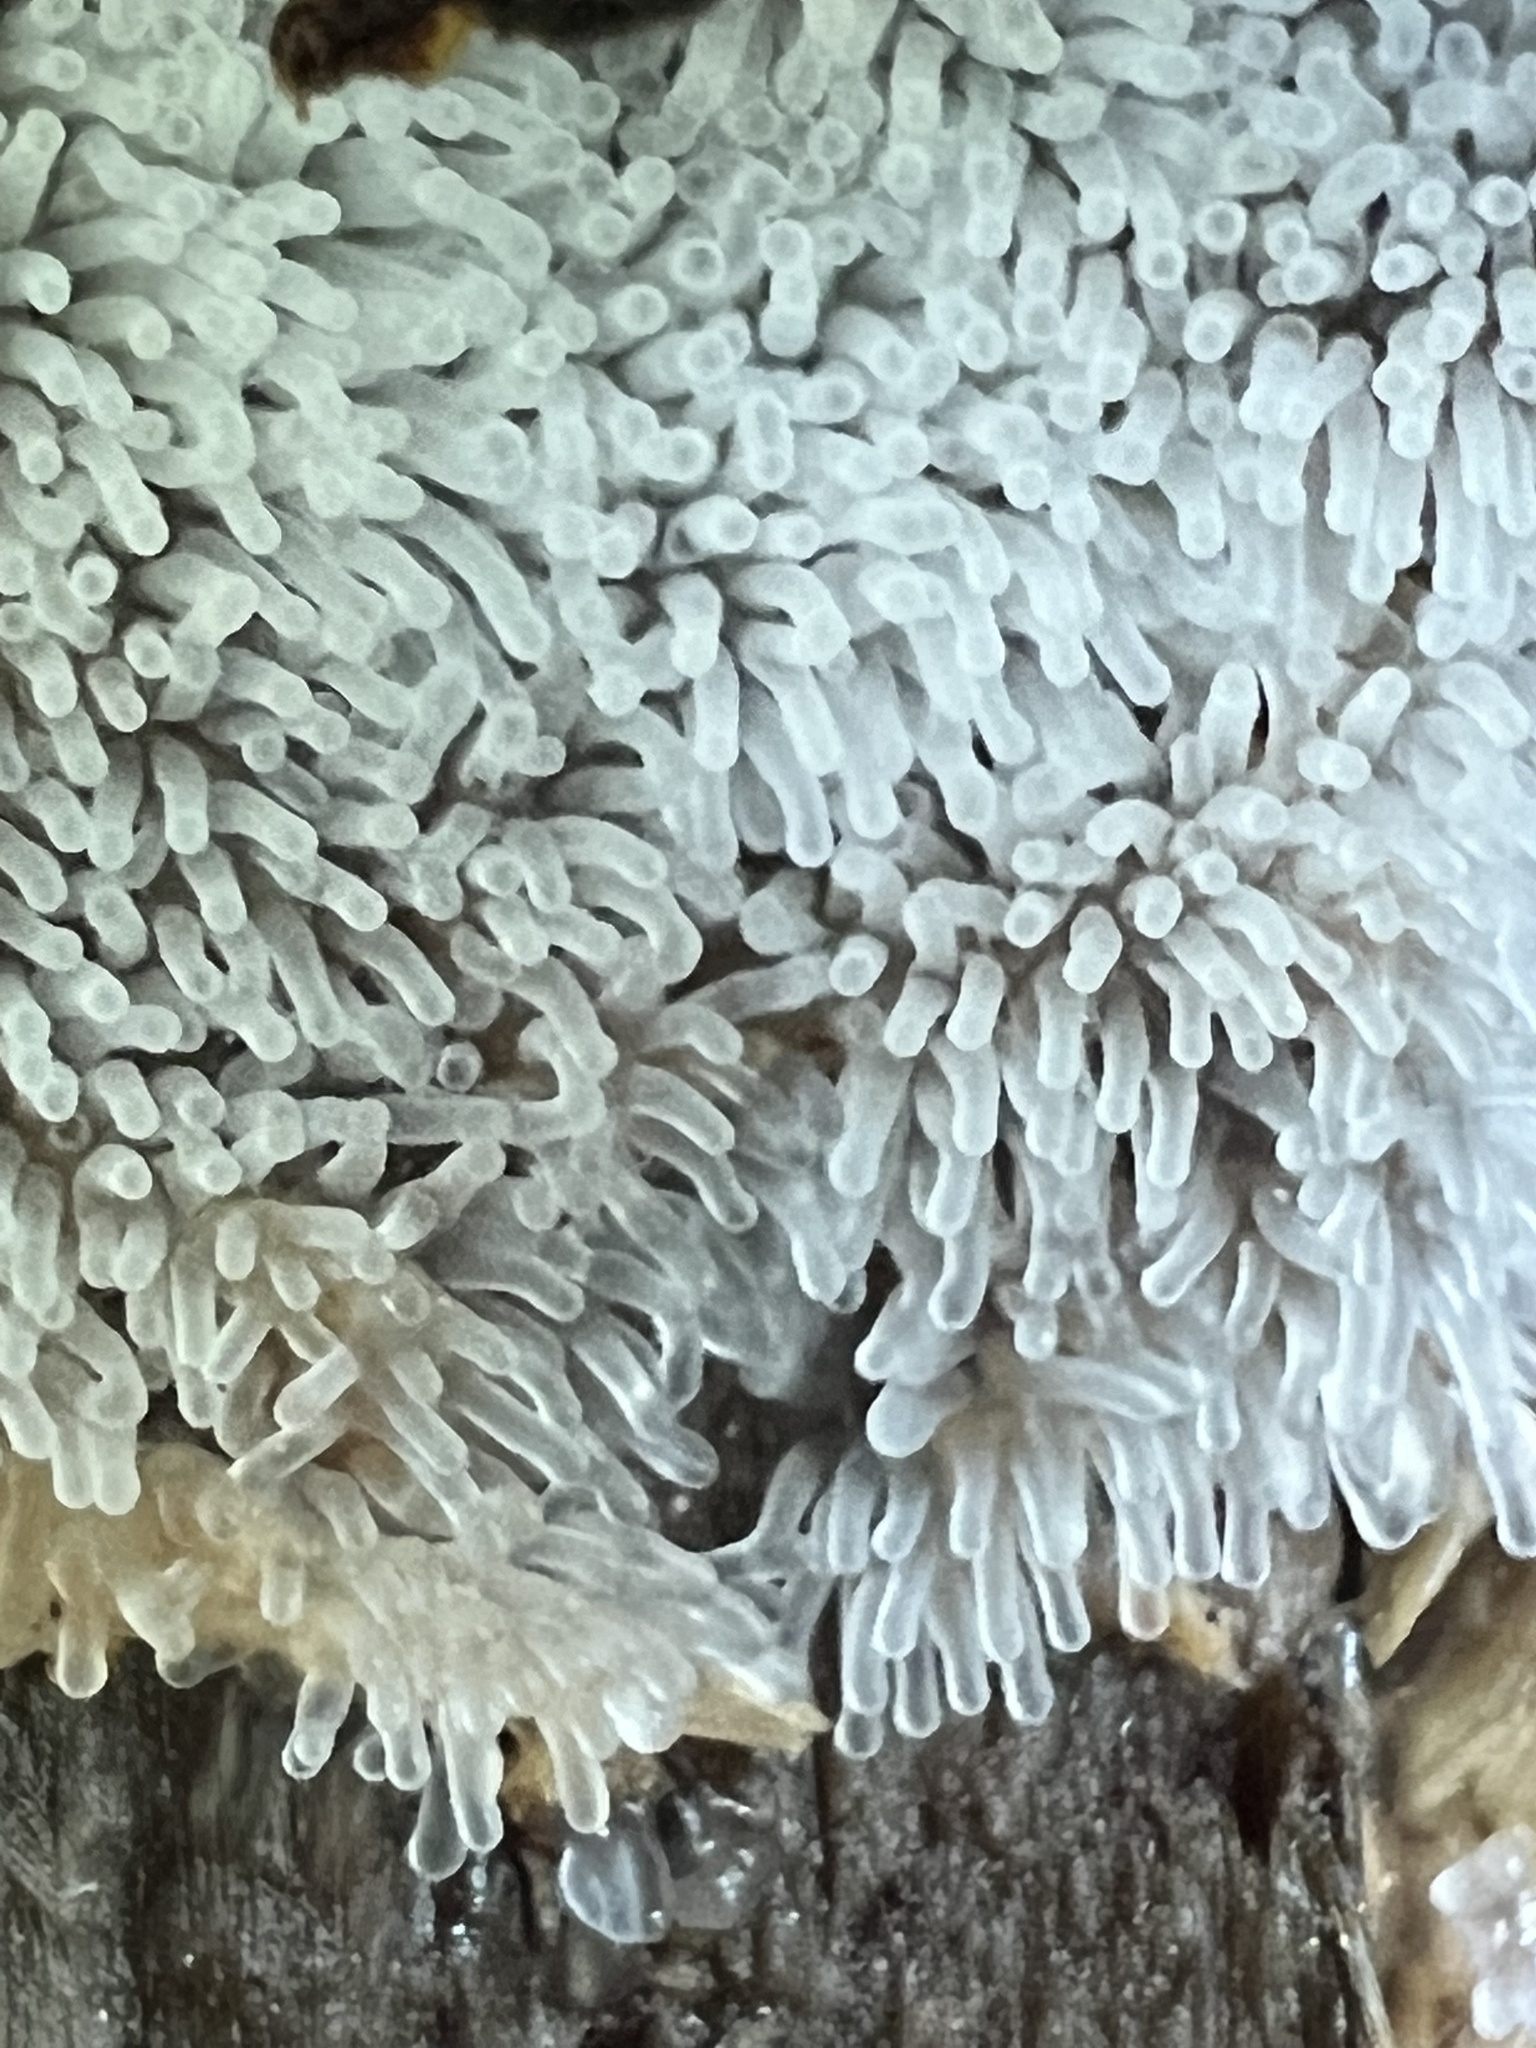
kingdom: Protozoa
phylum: Mycetozoa
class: Protosteliomycetes
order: Ceratiomyxales
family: Ceratiomyxaceae
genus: Ceratiomyxa
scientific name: Ceratiomyxa fruticulosa
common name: Honeycomb coral slime mold
